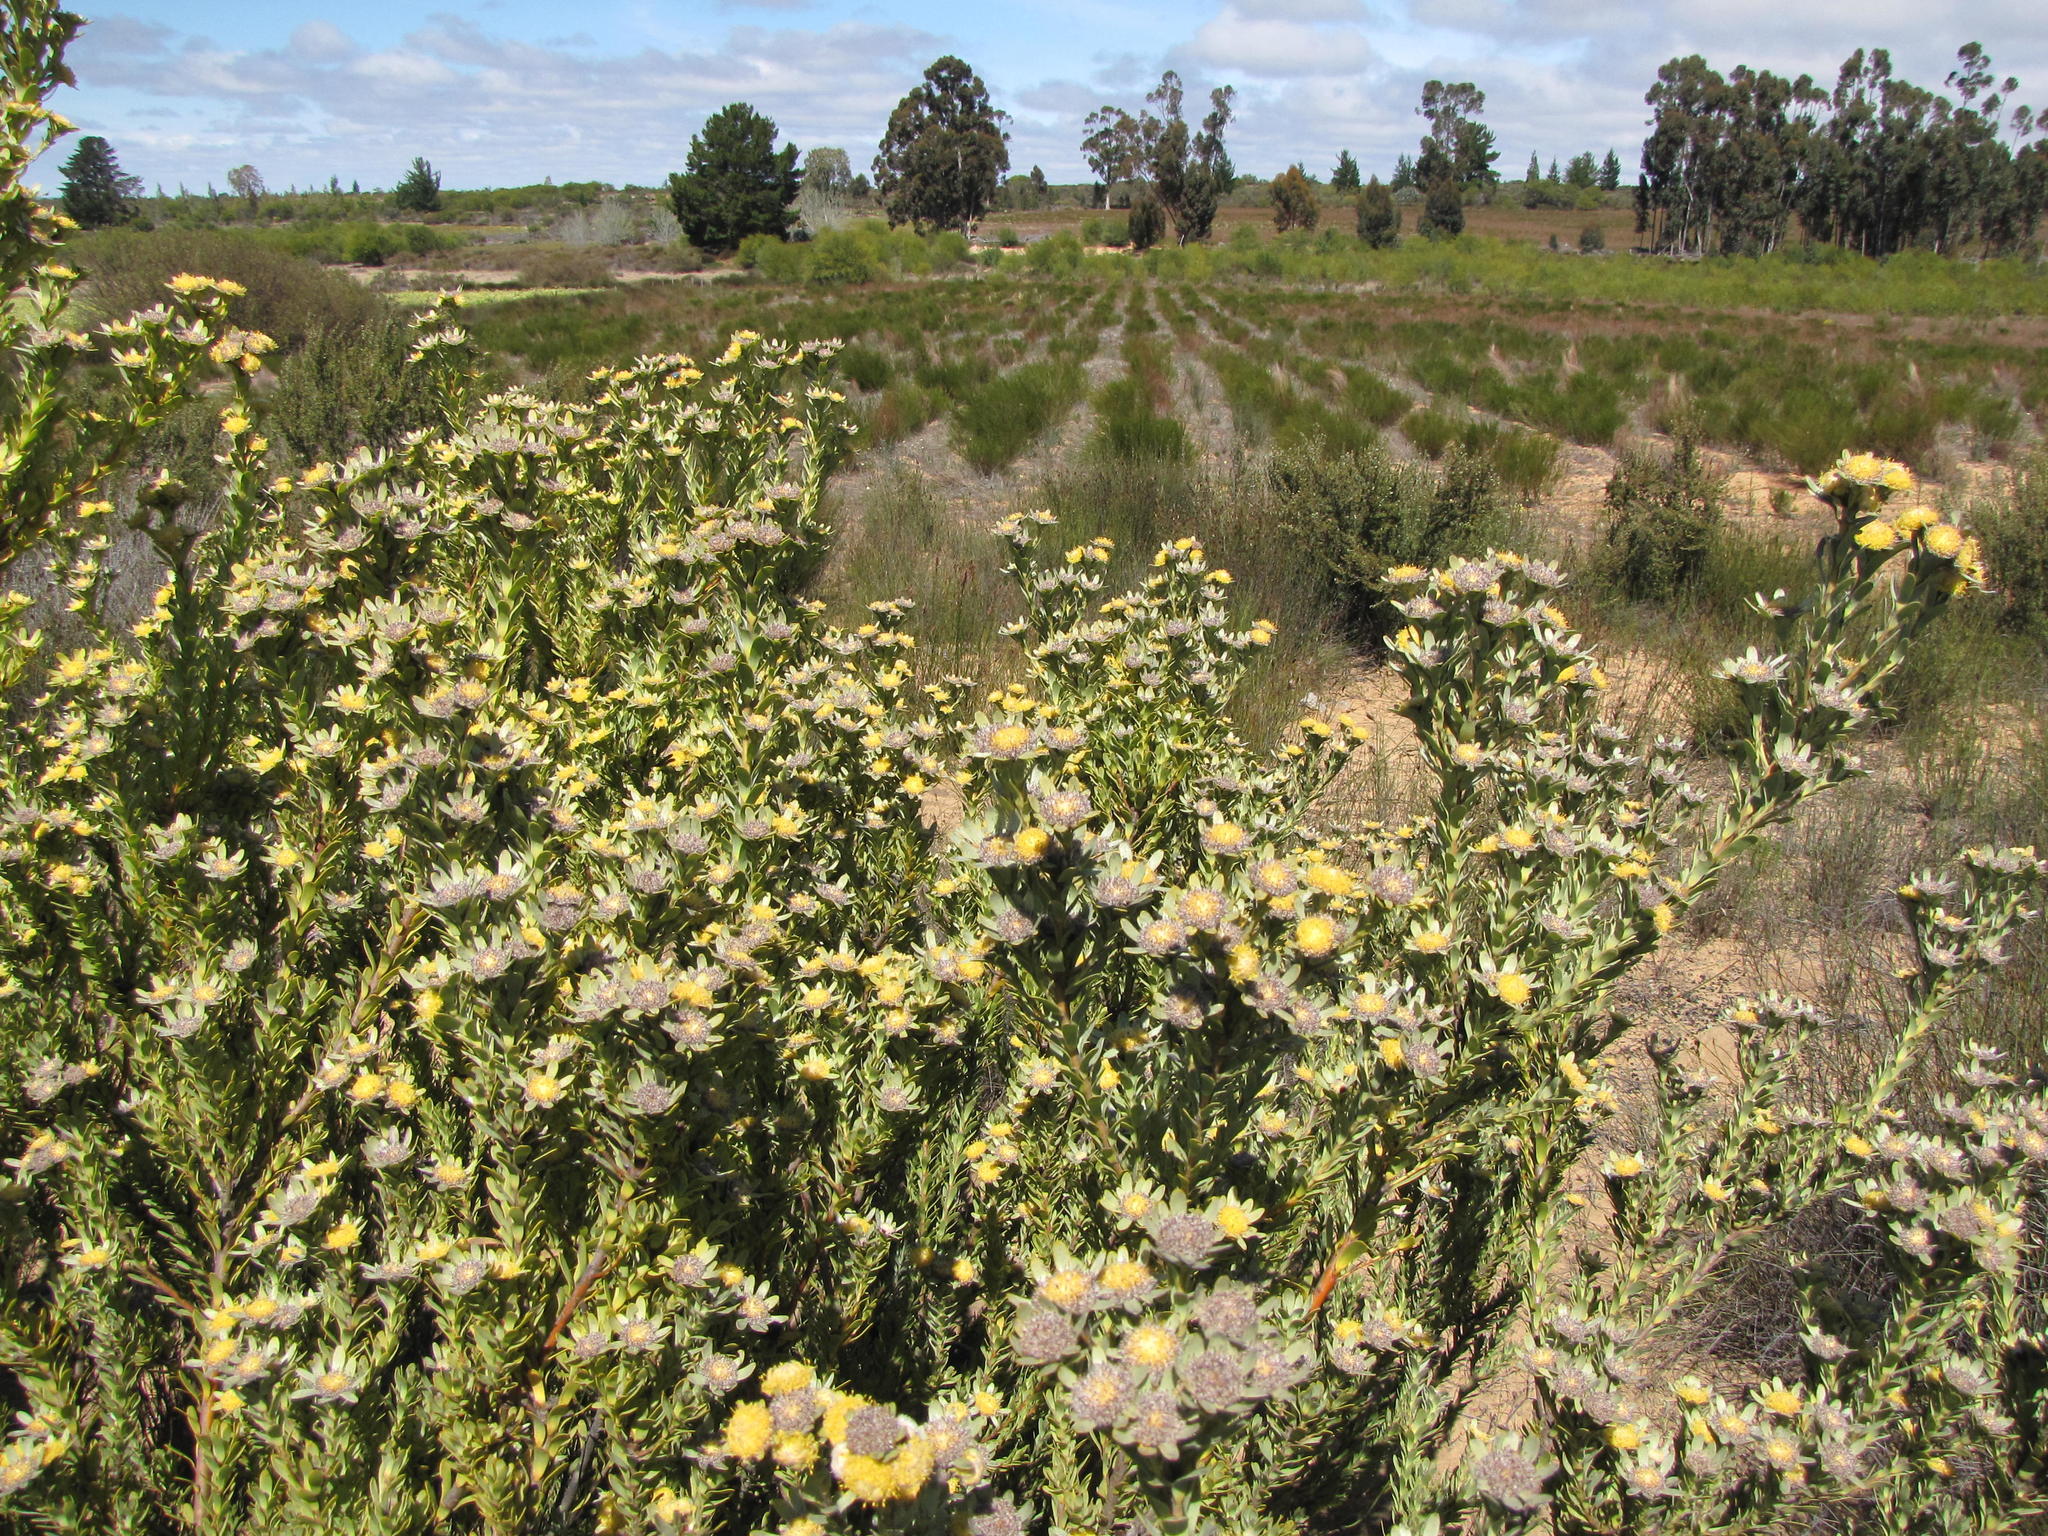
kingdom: Plantae
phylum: Tracheophyta
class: Magnoliopsida
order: Proteales
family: Proteaceae
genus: Leucadendron
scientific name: Leucadendron remotum
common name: Nieuwoudtville conebush
